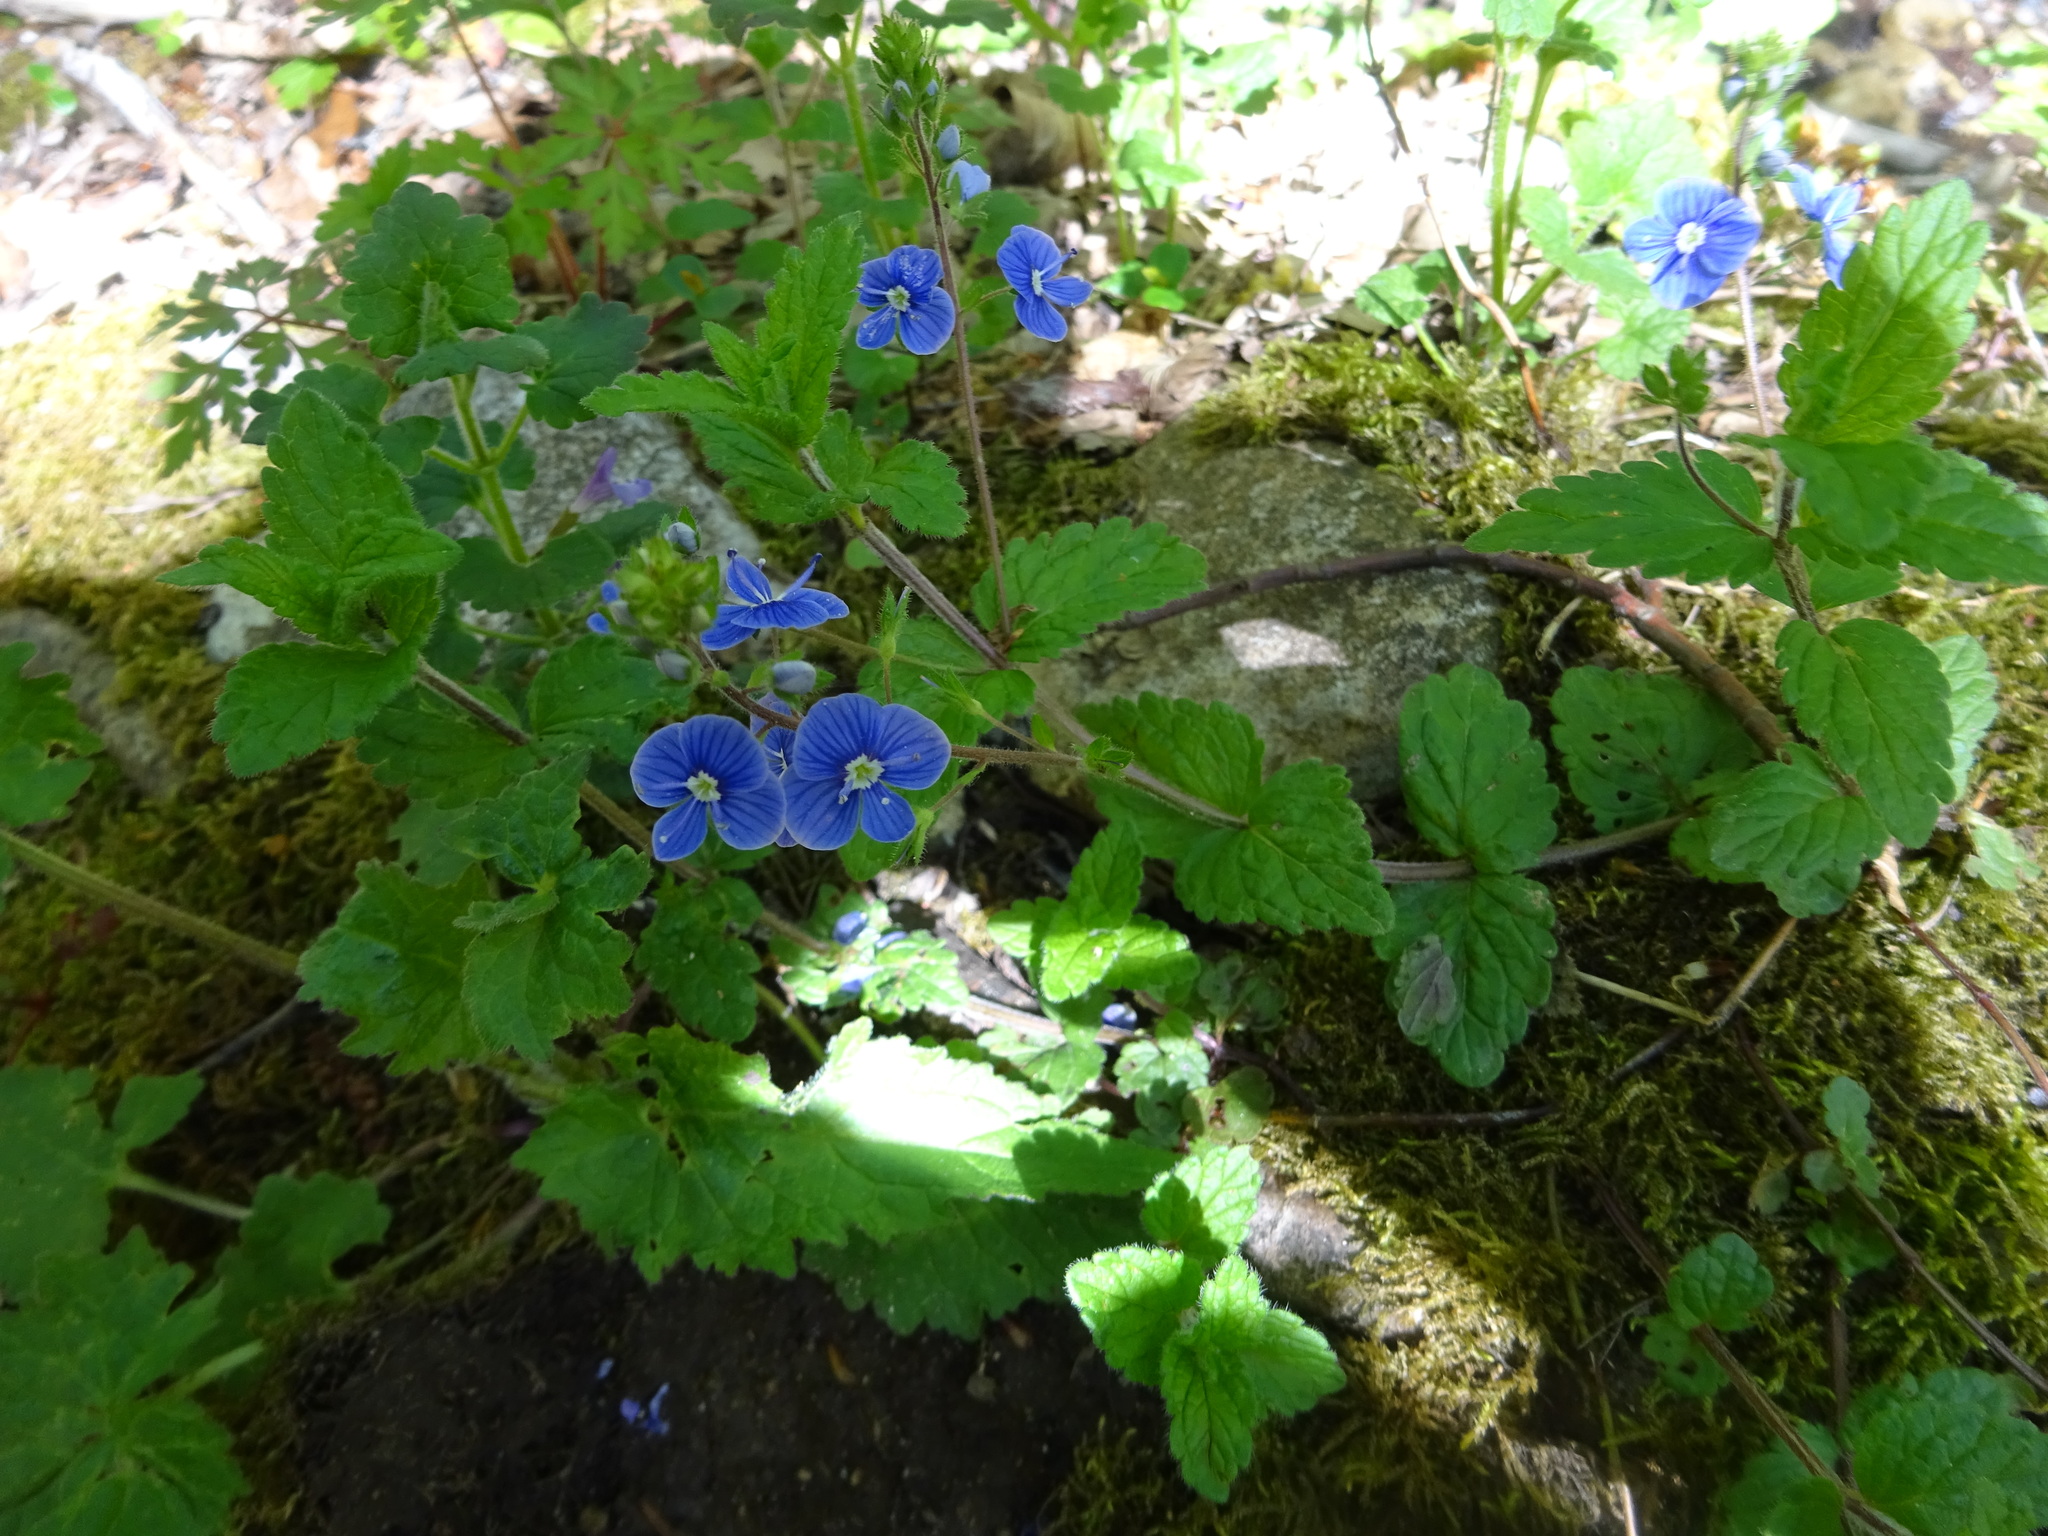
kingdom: Plantae
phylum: Tracheophyta
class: Magnoliopsida
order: Lamiales
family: Plantaginaceae
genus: Veronica
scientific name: Veronica chamaedrys
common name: Germander speedwell
